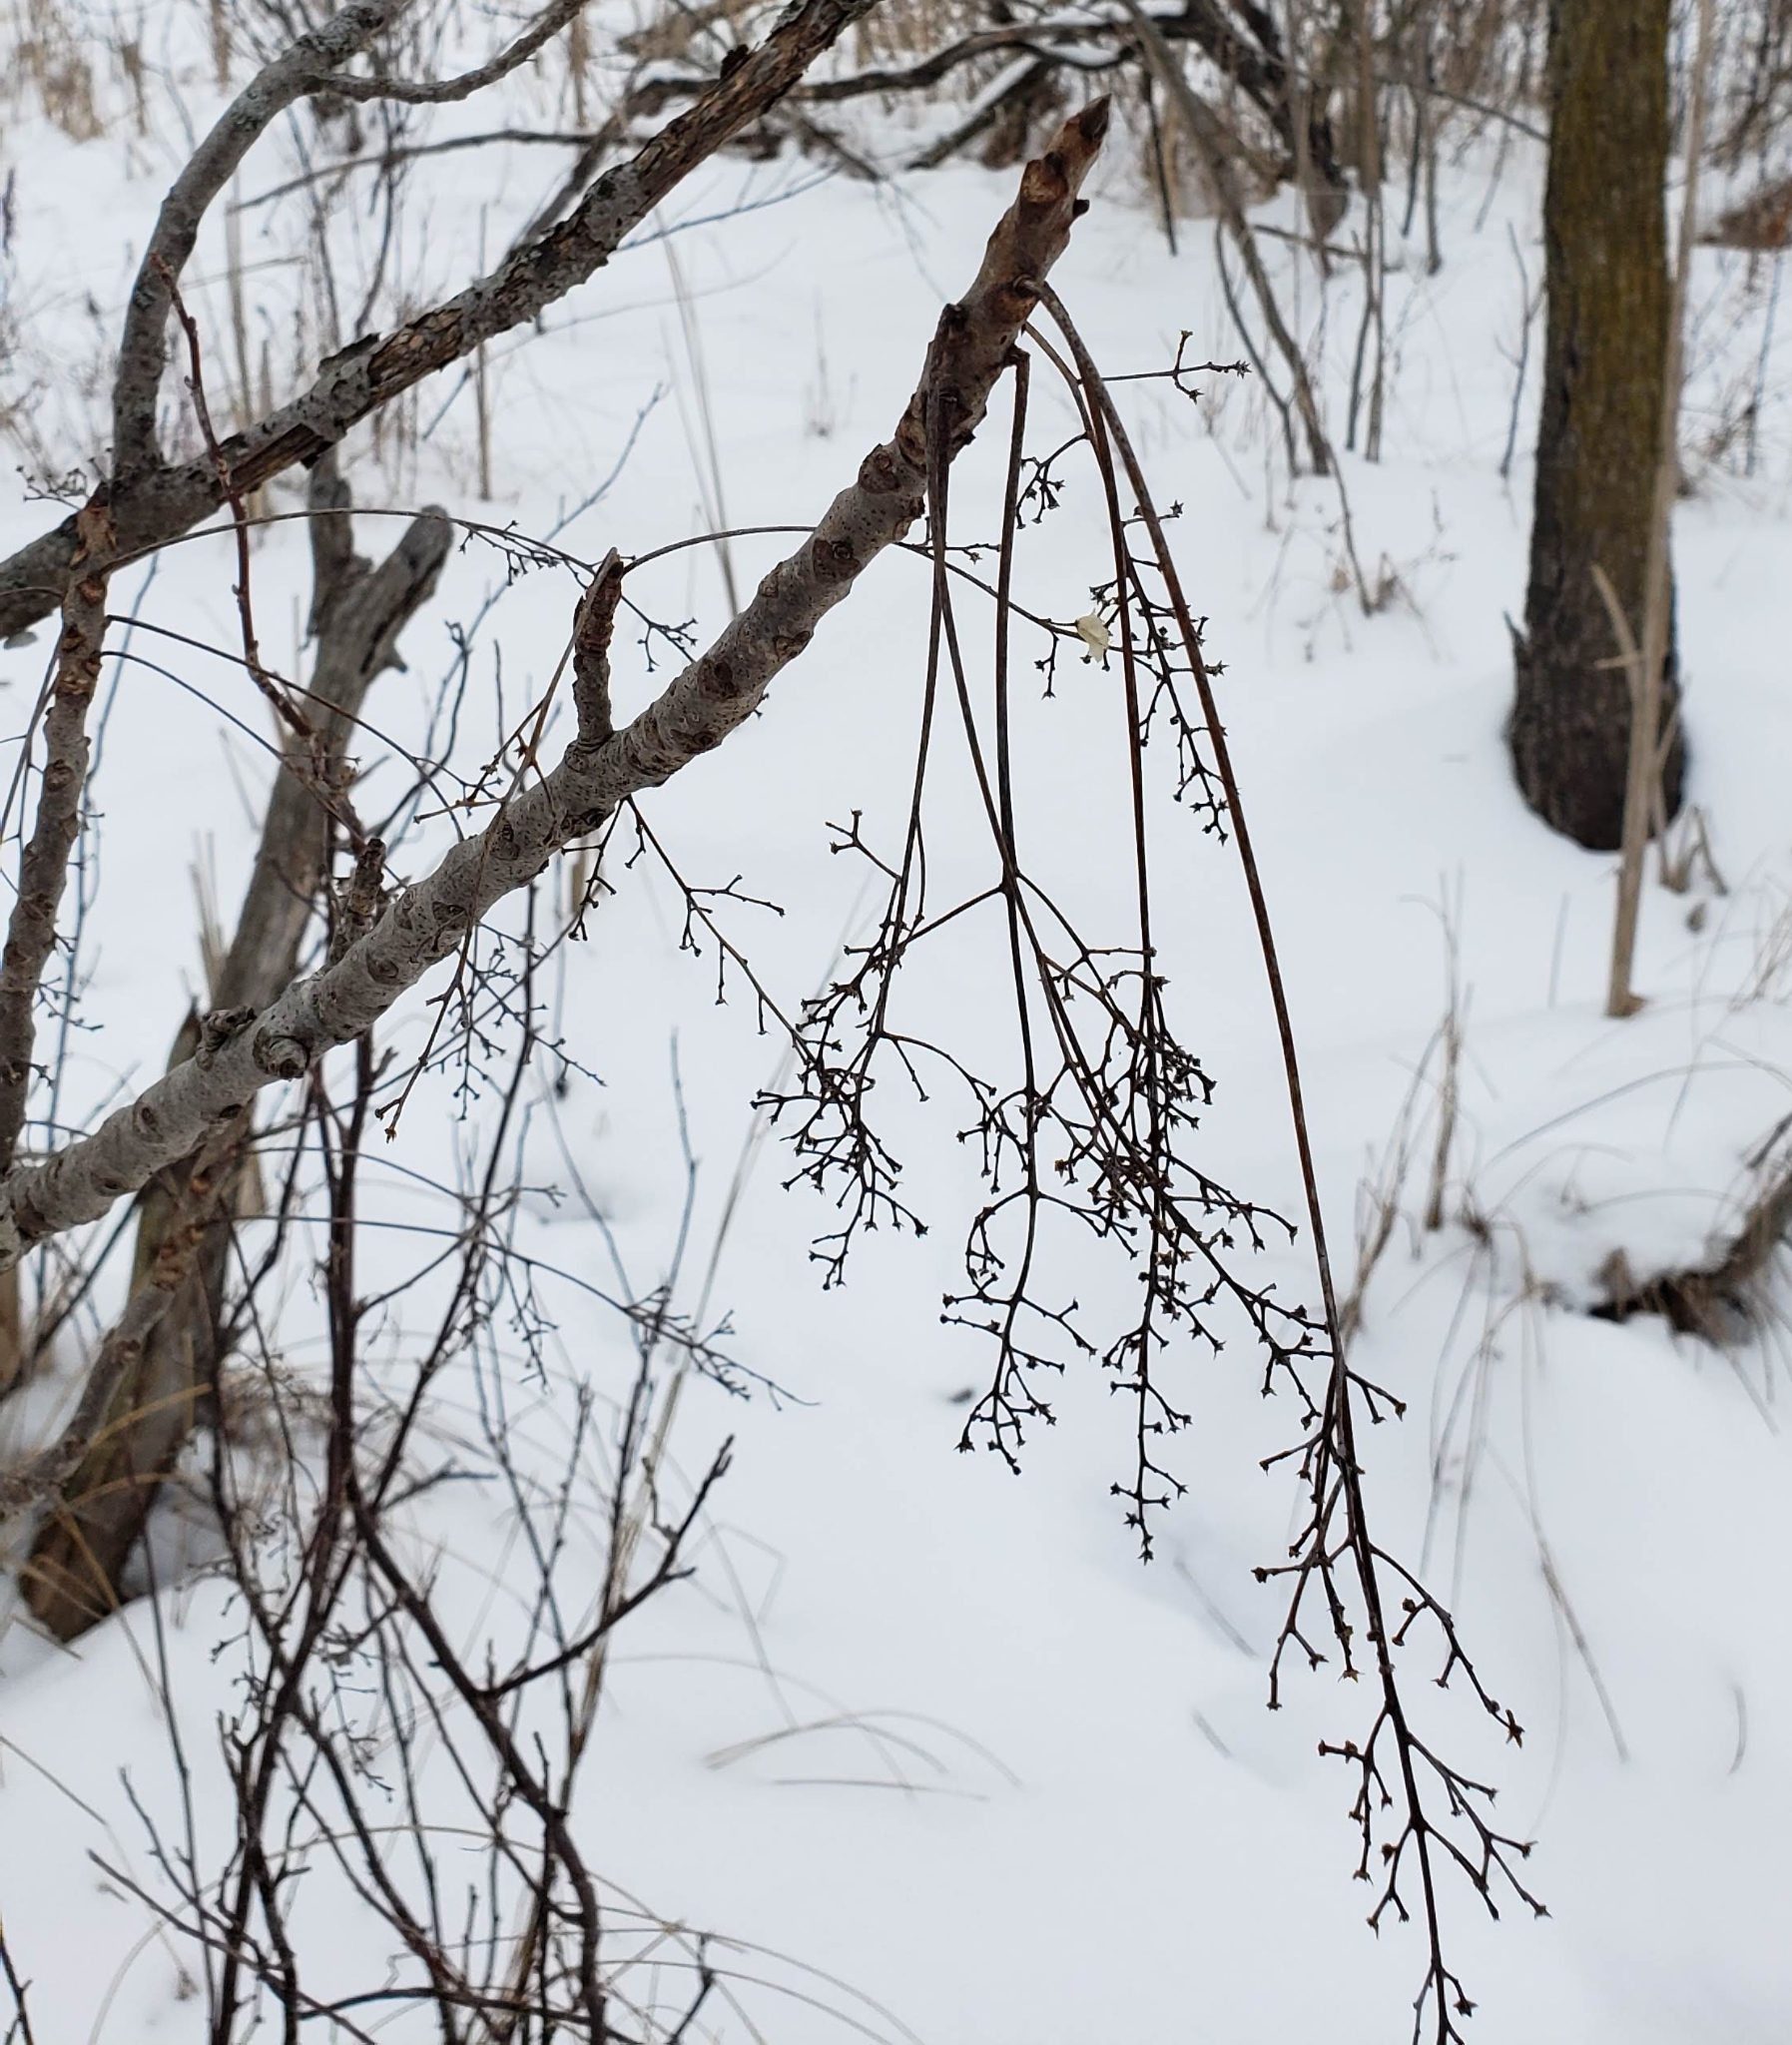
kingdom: Plantae
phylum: Tracheophyta
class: Magnoliopsida
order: Sapindales
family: Anacardiaceae
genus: Toxicodendron
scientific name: Toxicodendron vernix
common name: Poison sumac
